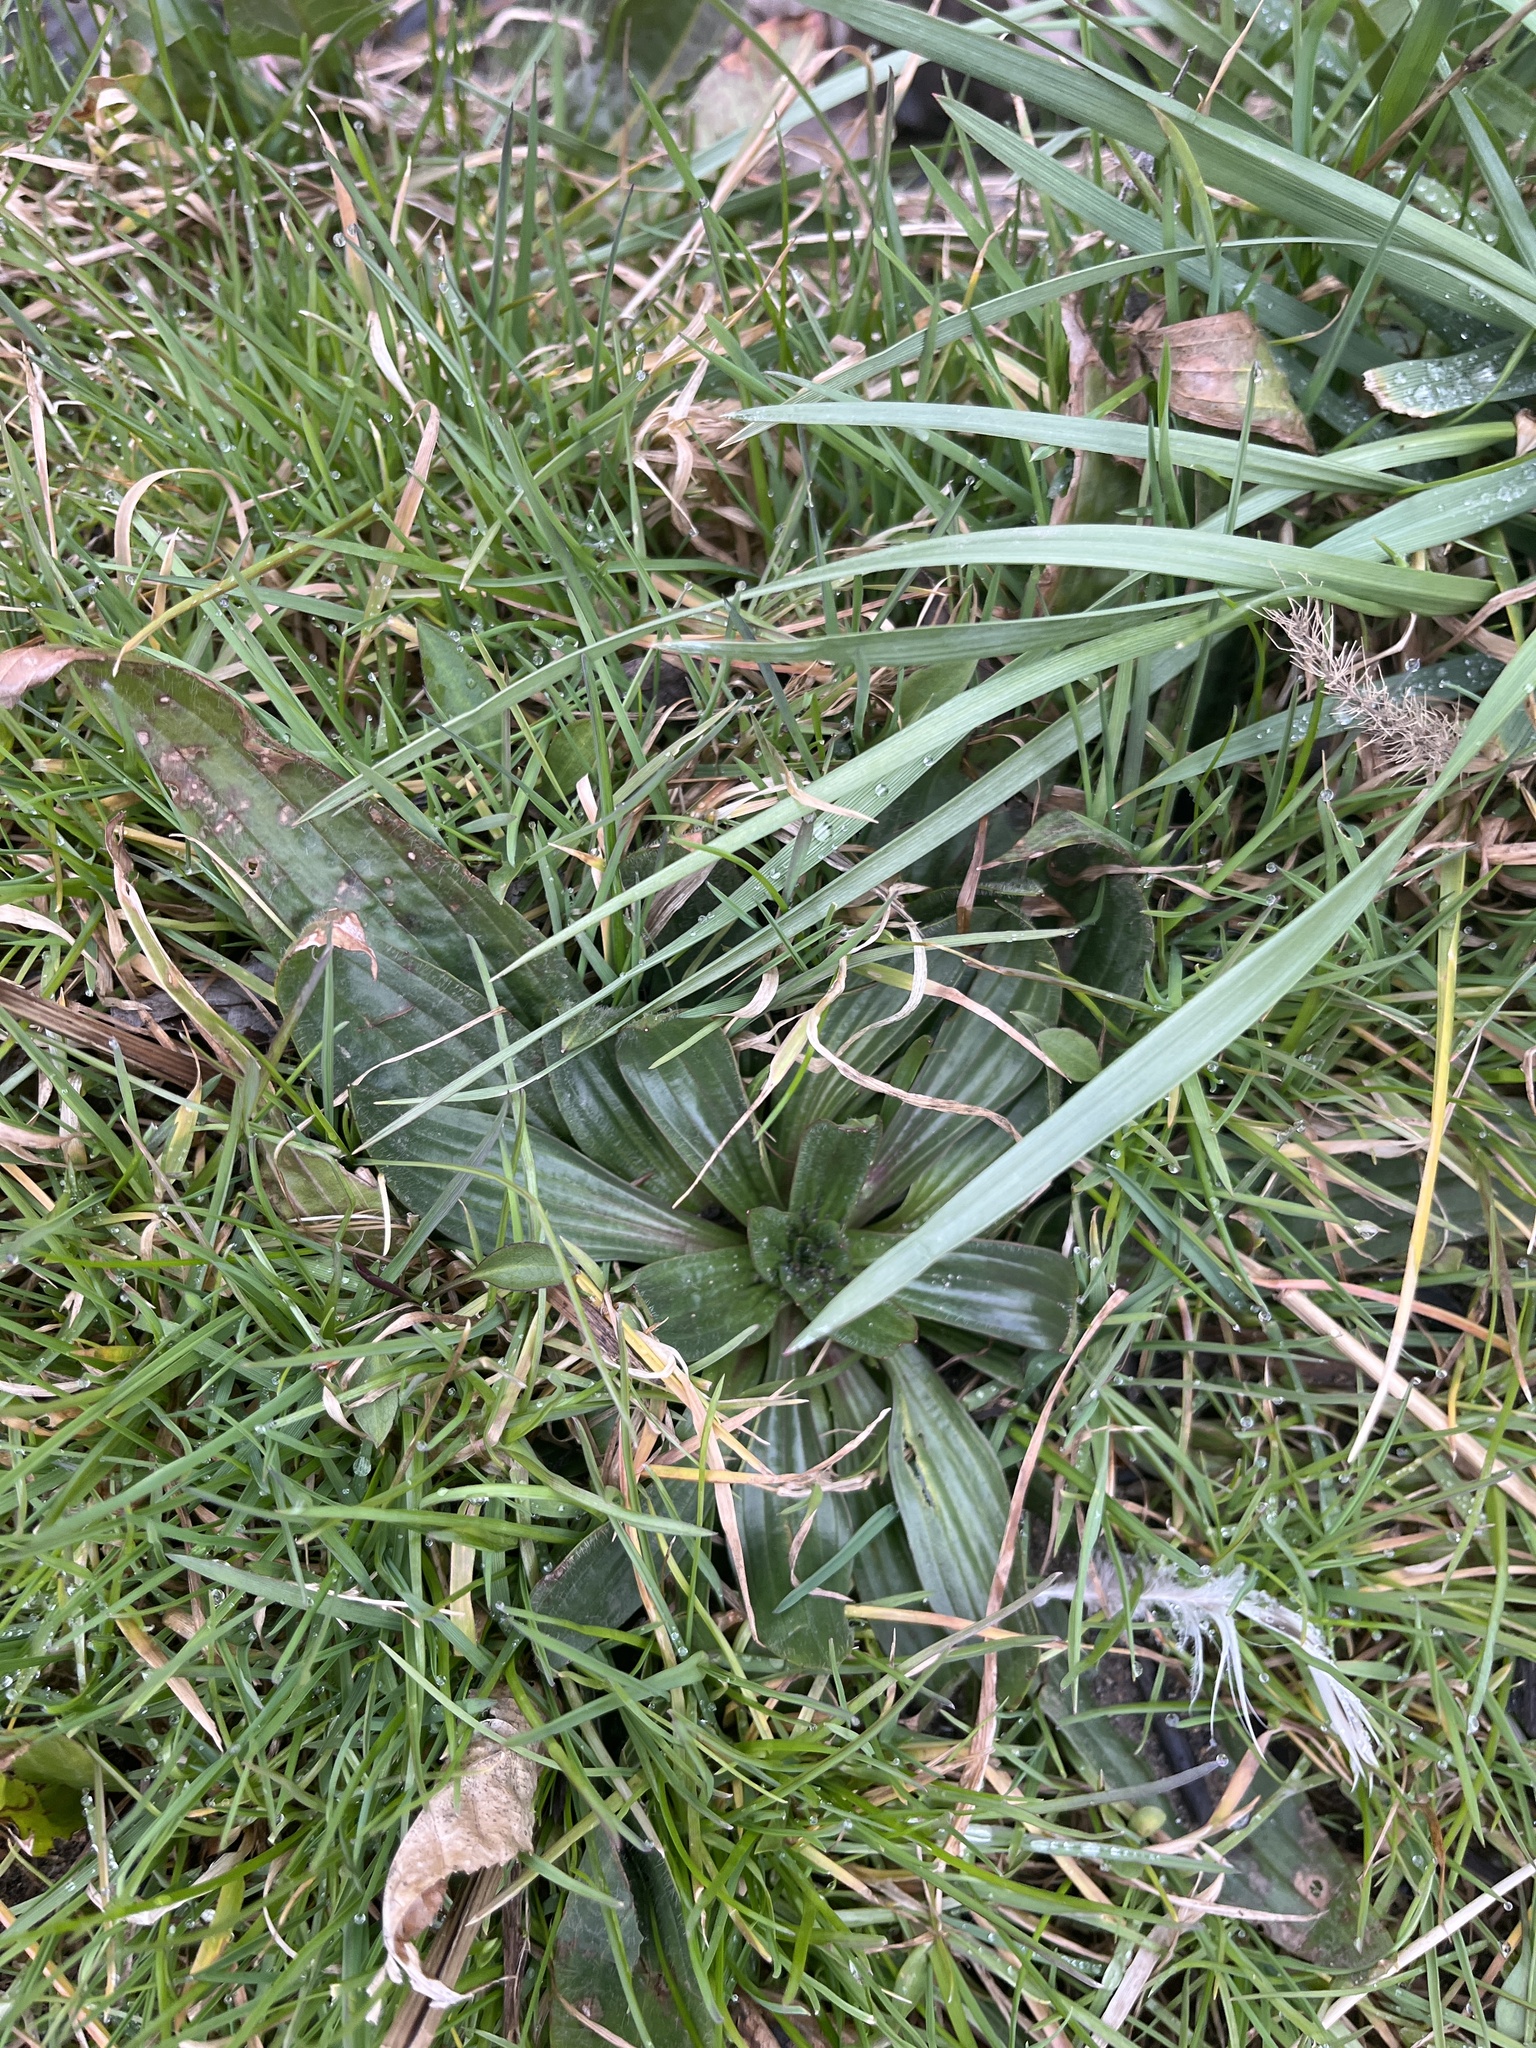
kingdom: Plantae
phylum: Tracheophyta
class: Magnoliopsida
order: Lamiales
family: Plantaginaceae
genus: Plantago
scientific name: Plantago lanceolata
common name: Ribwort plantain
